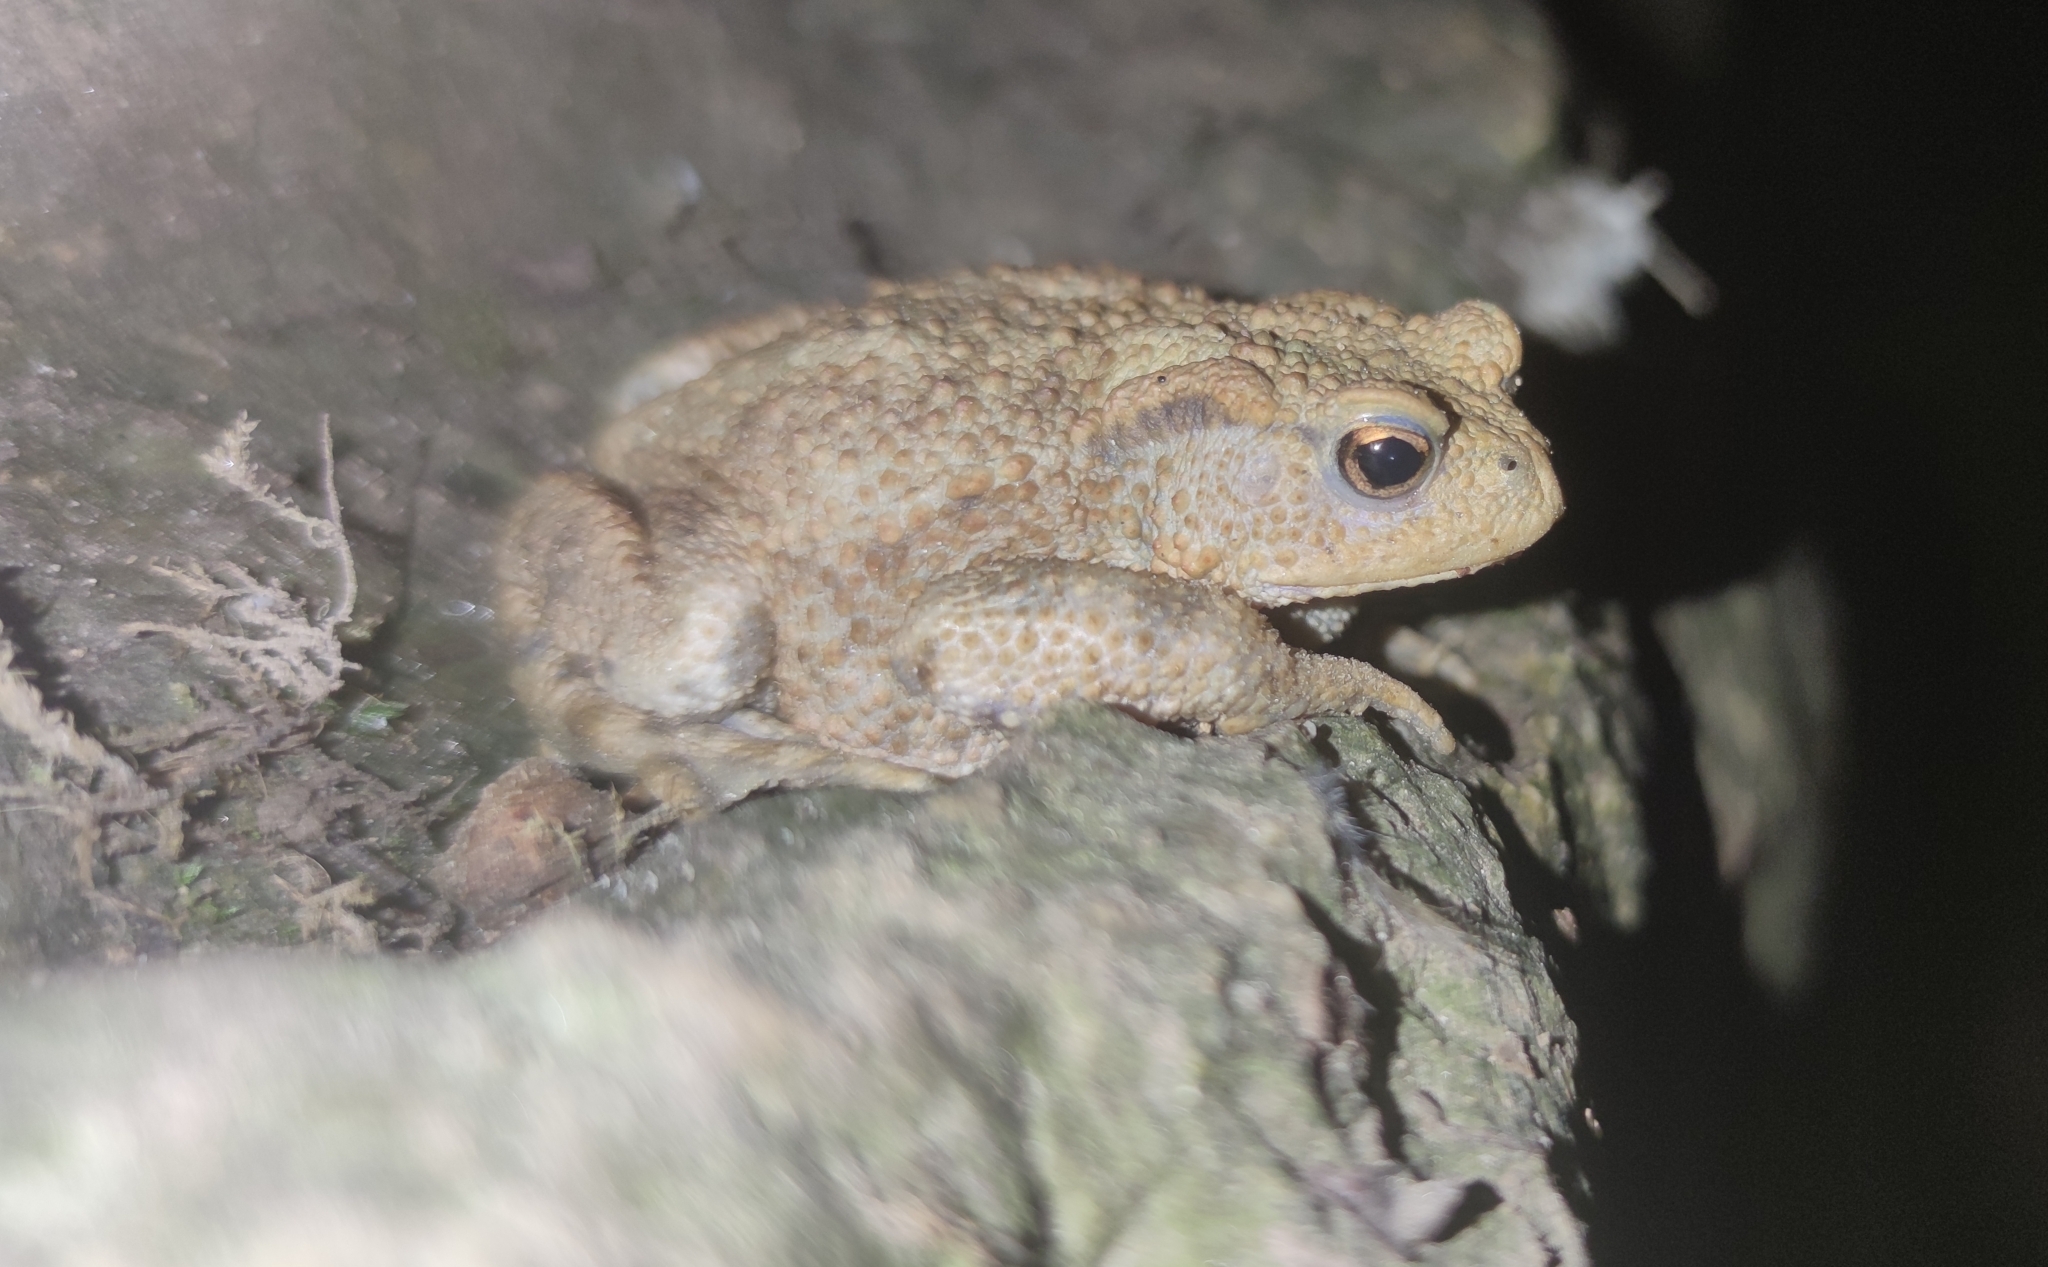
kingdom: Animalia
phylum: Chordata
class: Amphibia
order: Anura
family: Bufonidae
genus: Bufo
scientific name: Bufo bufo
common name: Common toad
